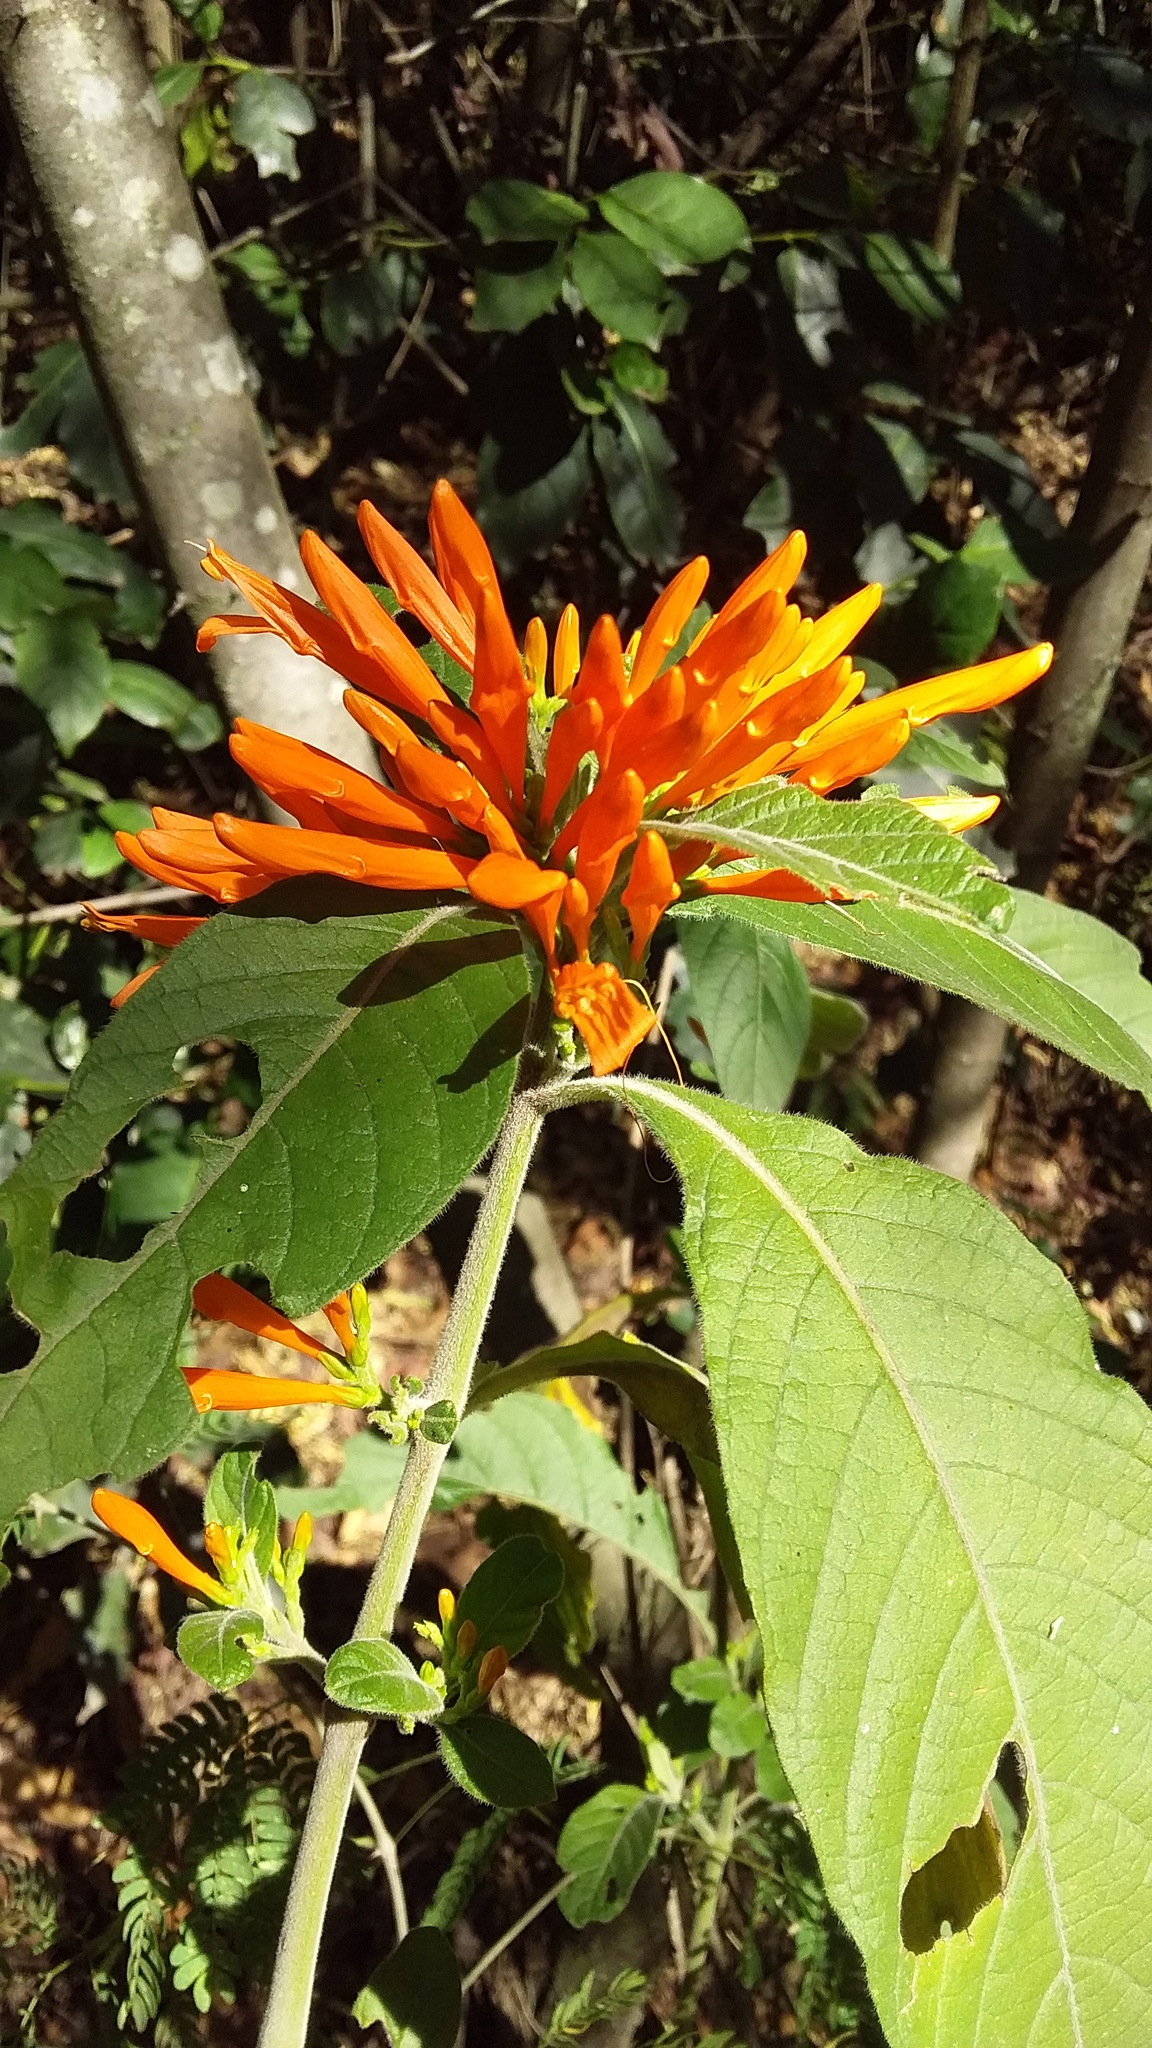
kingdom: Plantae
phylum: Tracheophyta
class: Magnoliopsida
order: Lamiales
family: Acanthaceae
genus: Justicia
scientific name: Justicia spicigera
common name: Mohintli
